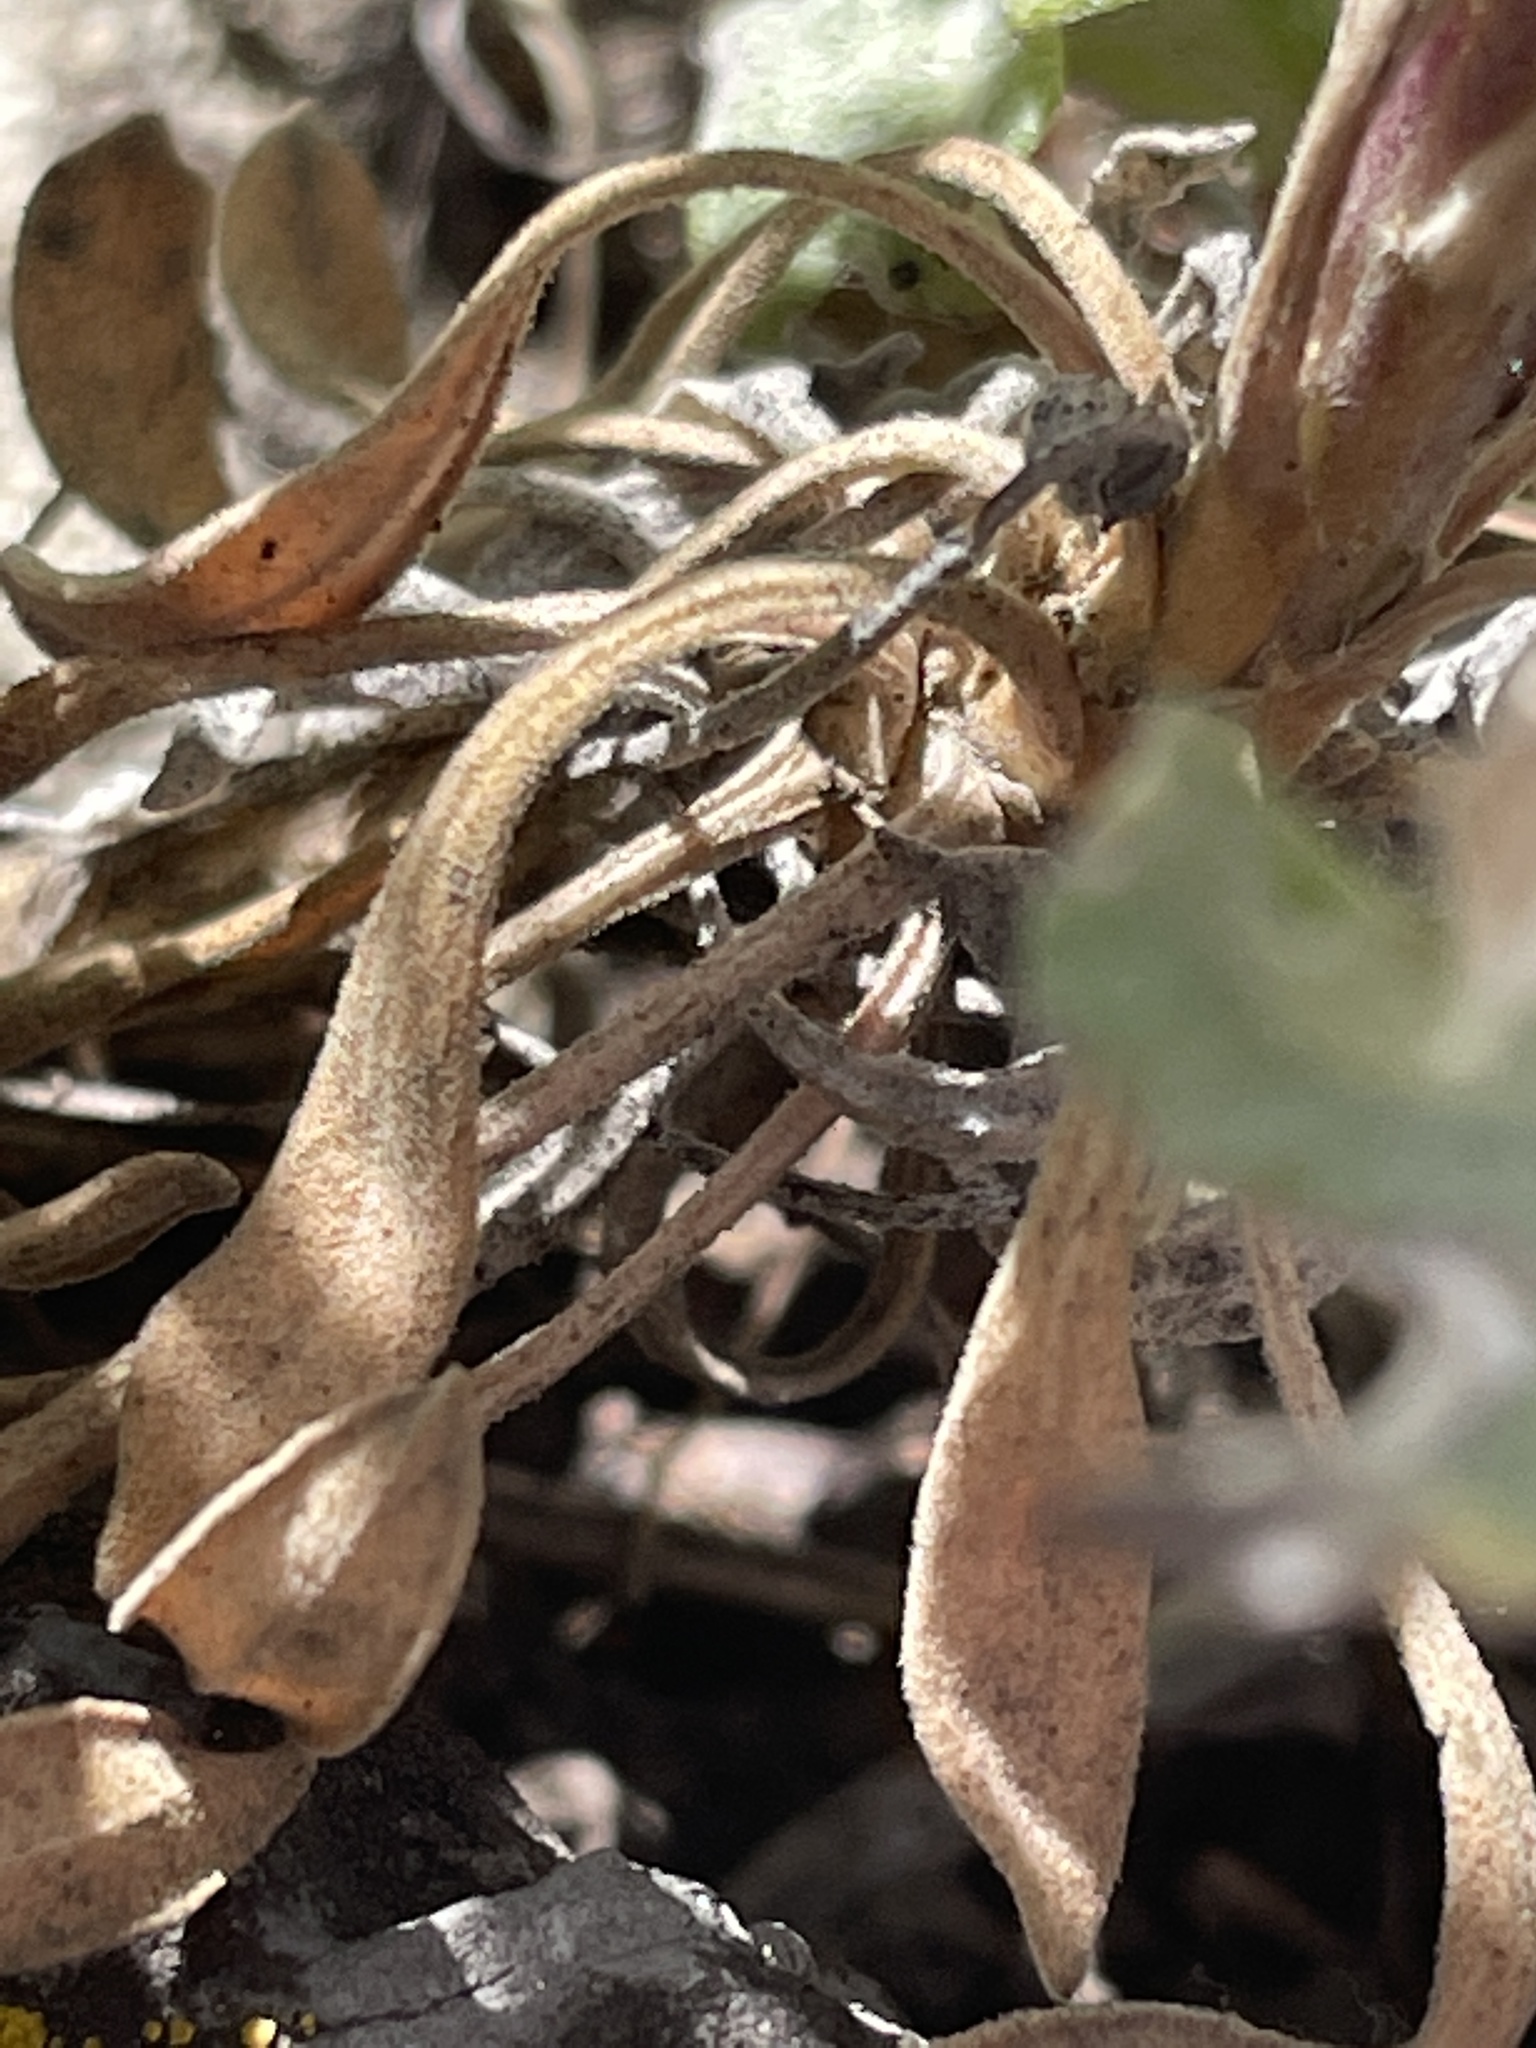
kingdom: Plantae
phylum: Tracheophyta
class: Magnoliopsida
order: Brassicales
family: Brassicaceae
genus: Boechera
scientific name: Boechera retrofracta
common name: Dangling suncress
